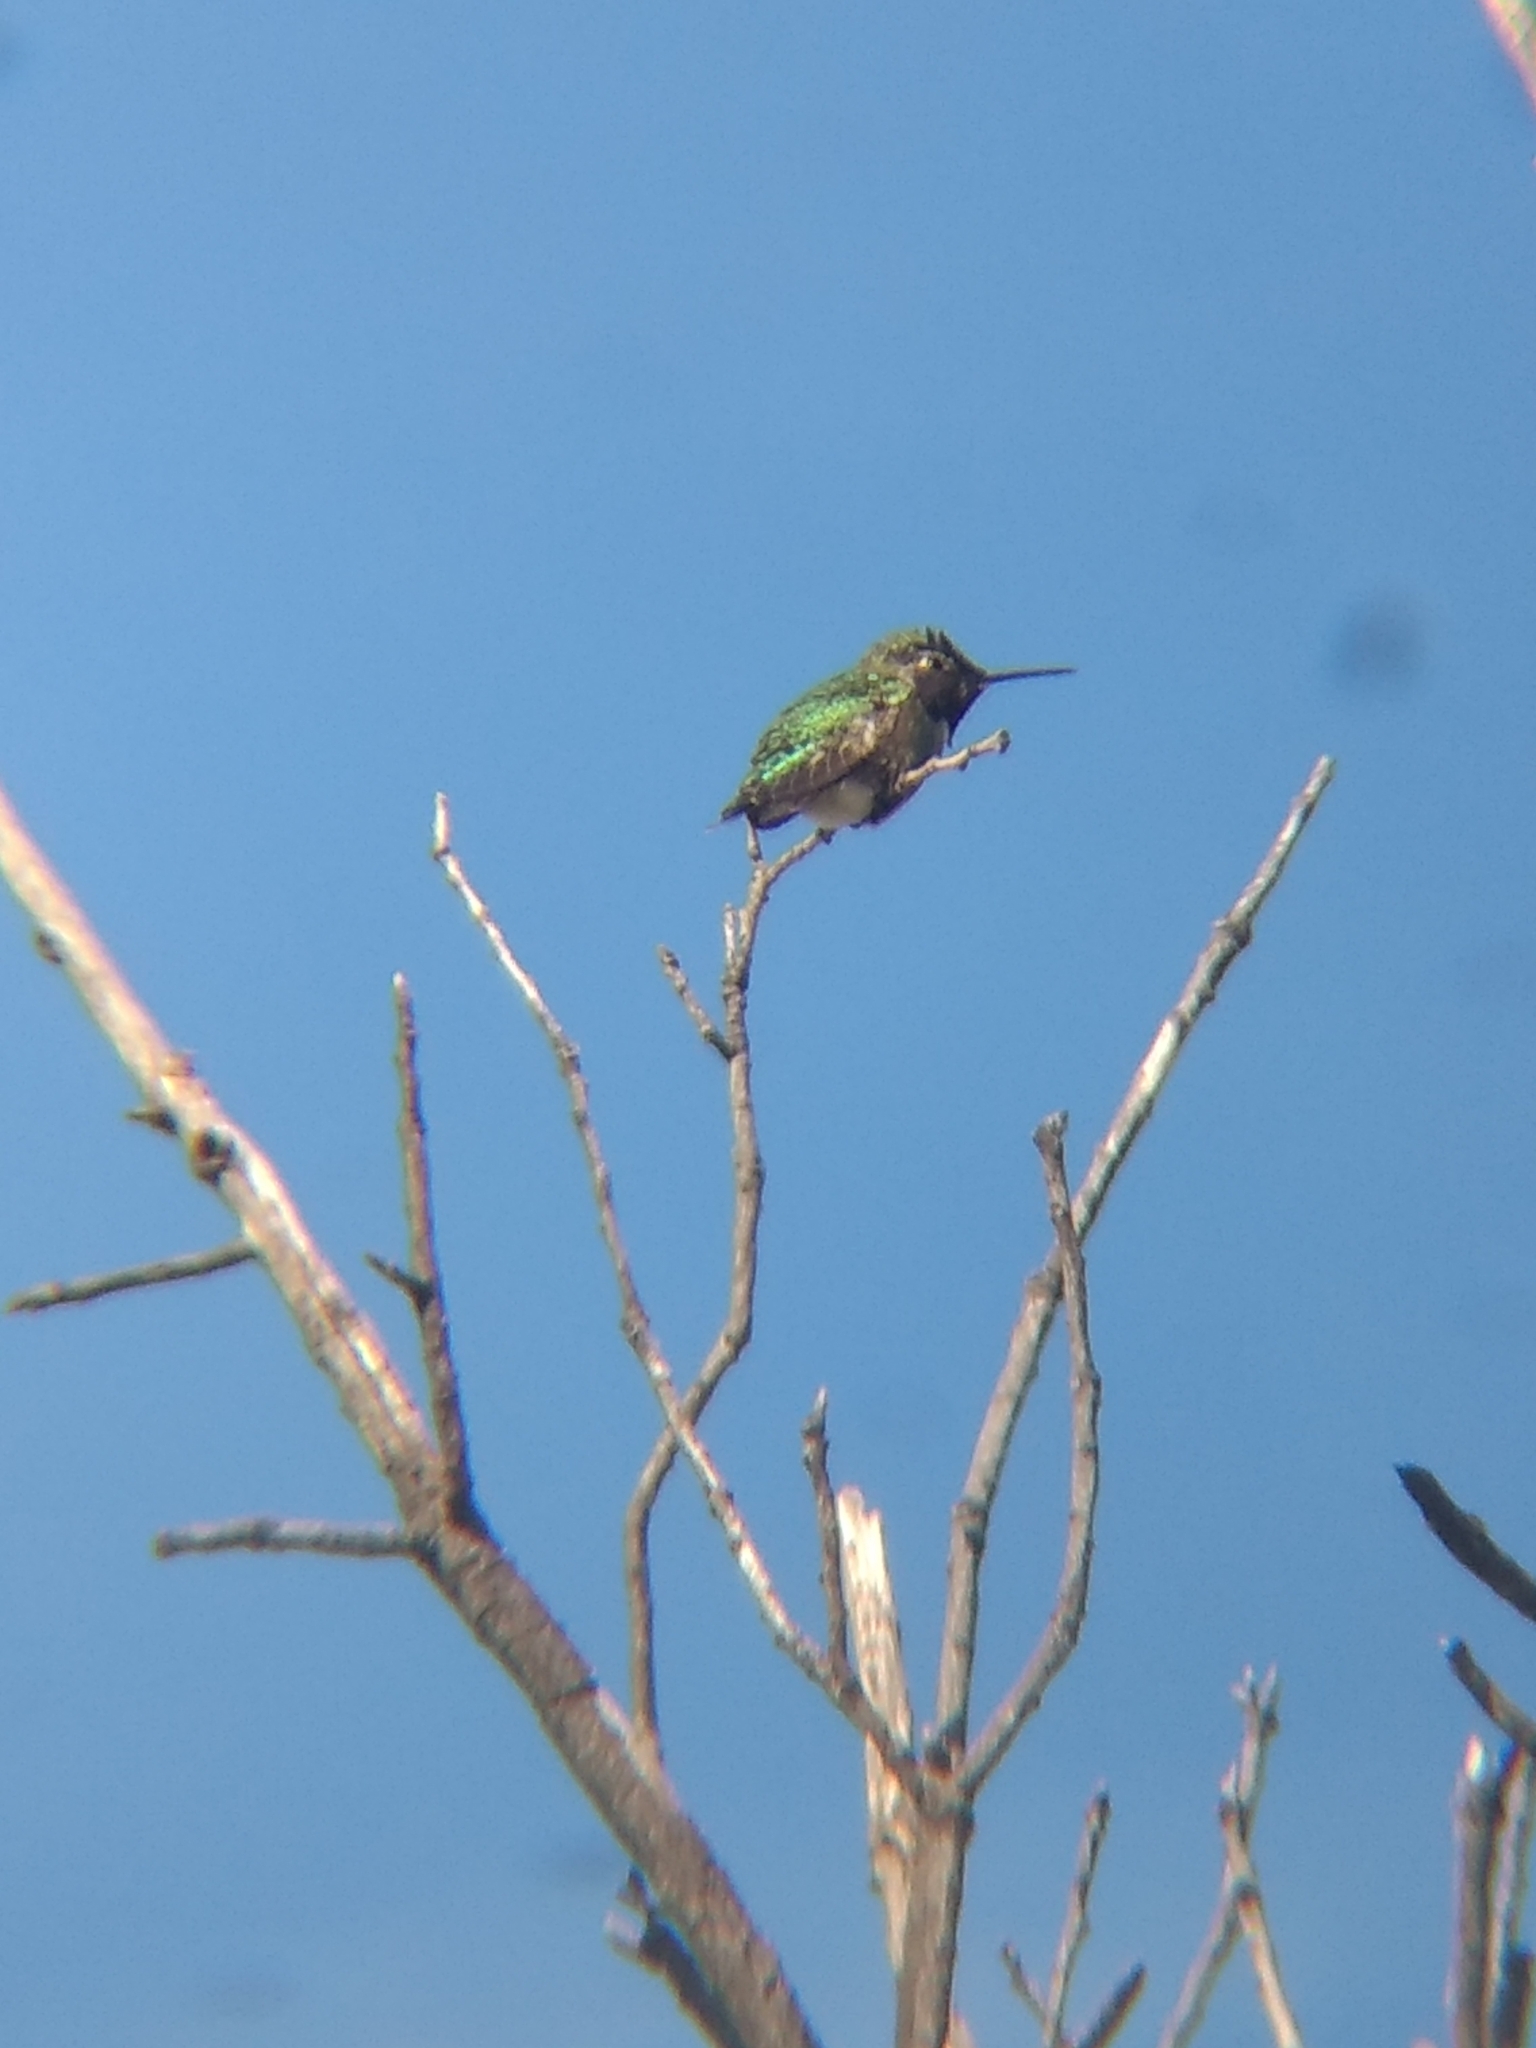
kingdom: Animalia
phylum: Chordata
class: Aves
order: Apodiformes
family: Trochilidae
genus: Calypte
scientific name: Calypte anna
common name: Anna's hummingbird
